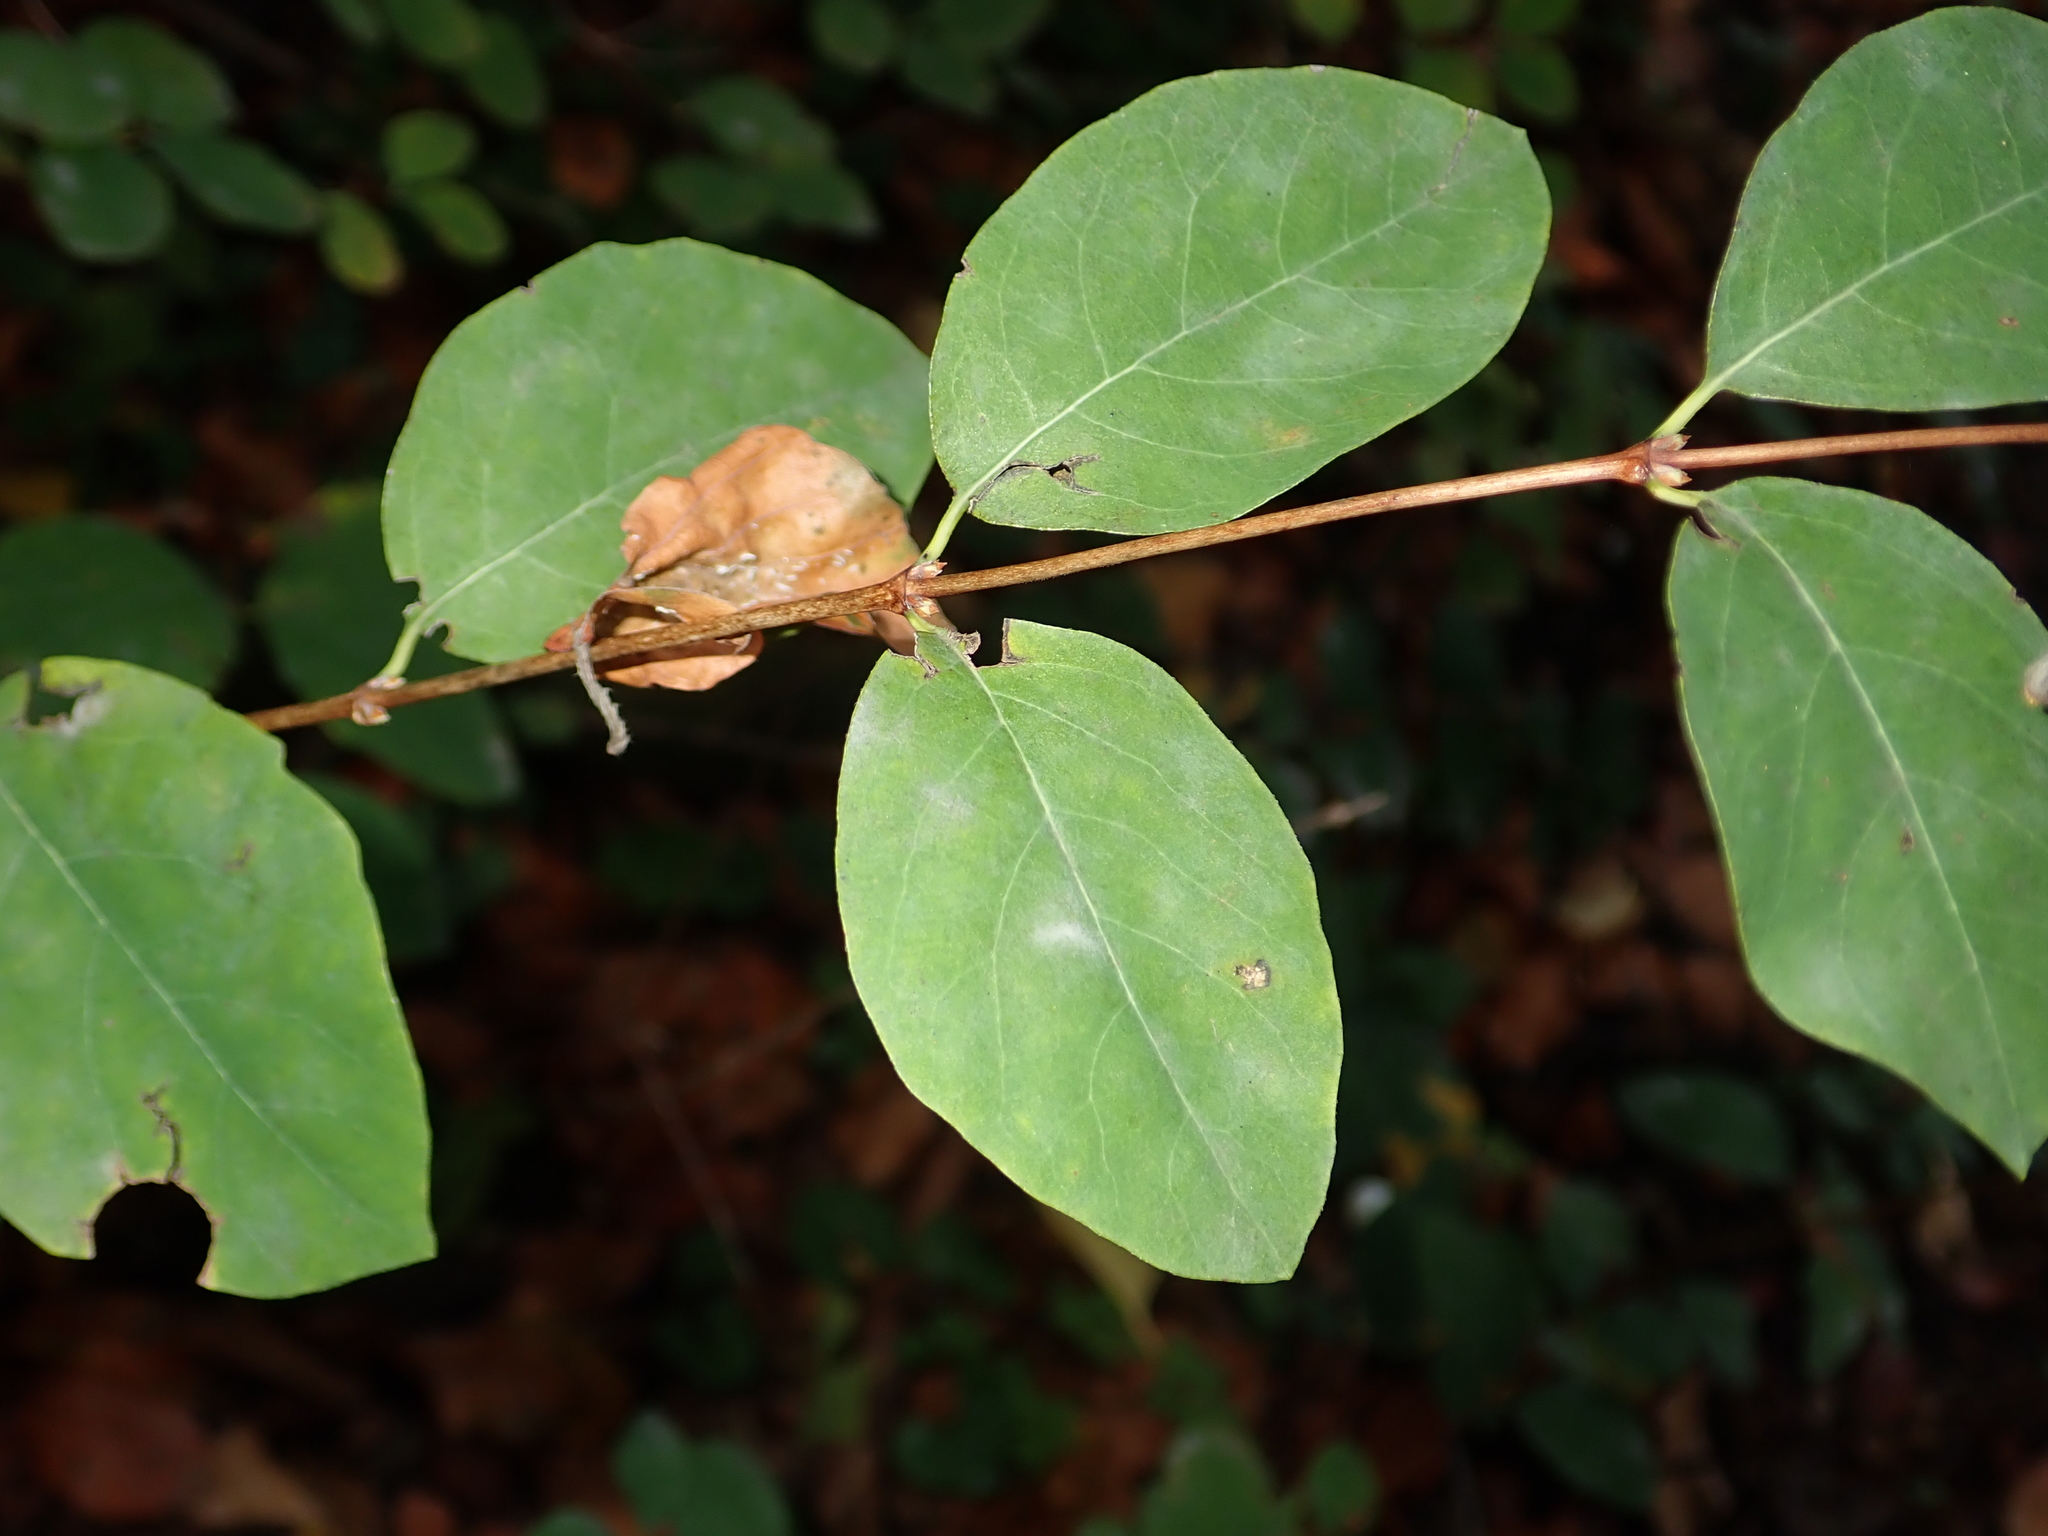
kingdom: Plantae
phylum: Tracheophyta
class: Magnoliopsida
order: Dipsacales
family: Caprifoliaceae
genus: Symphoricarpos
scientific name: Symphoricarpos albus
